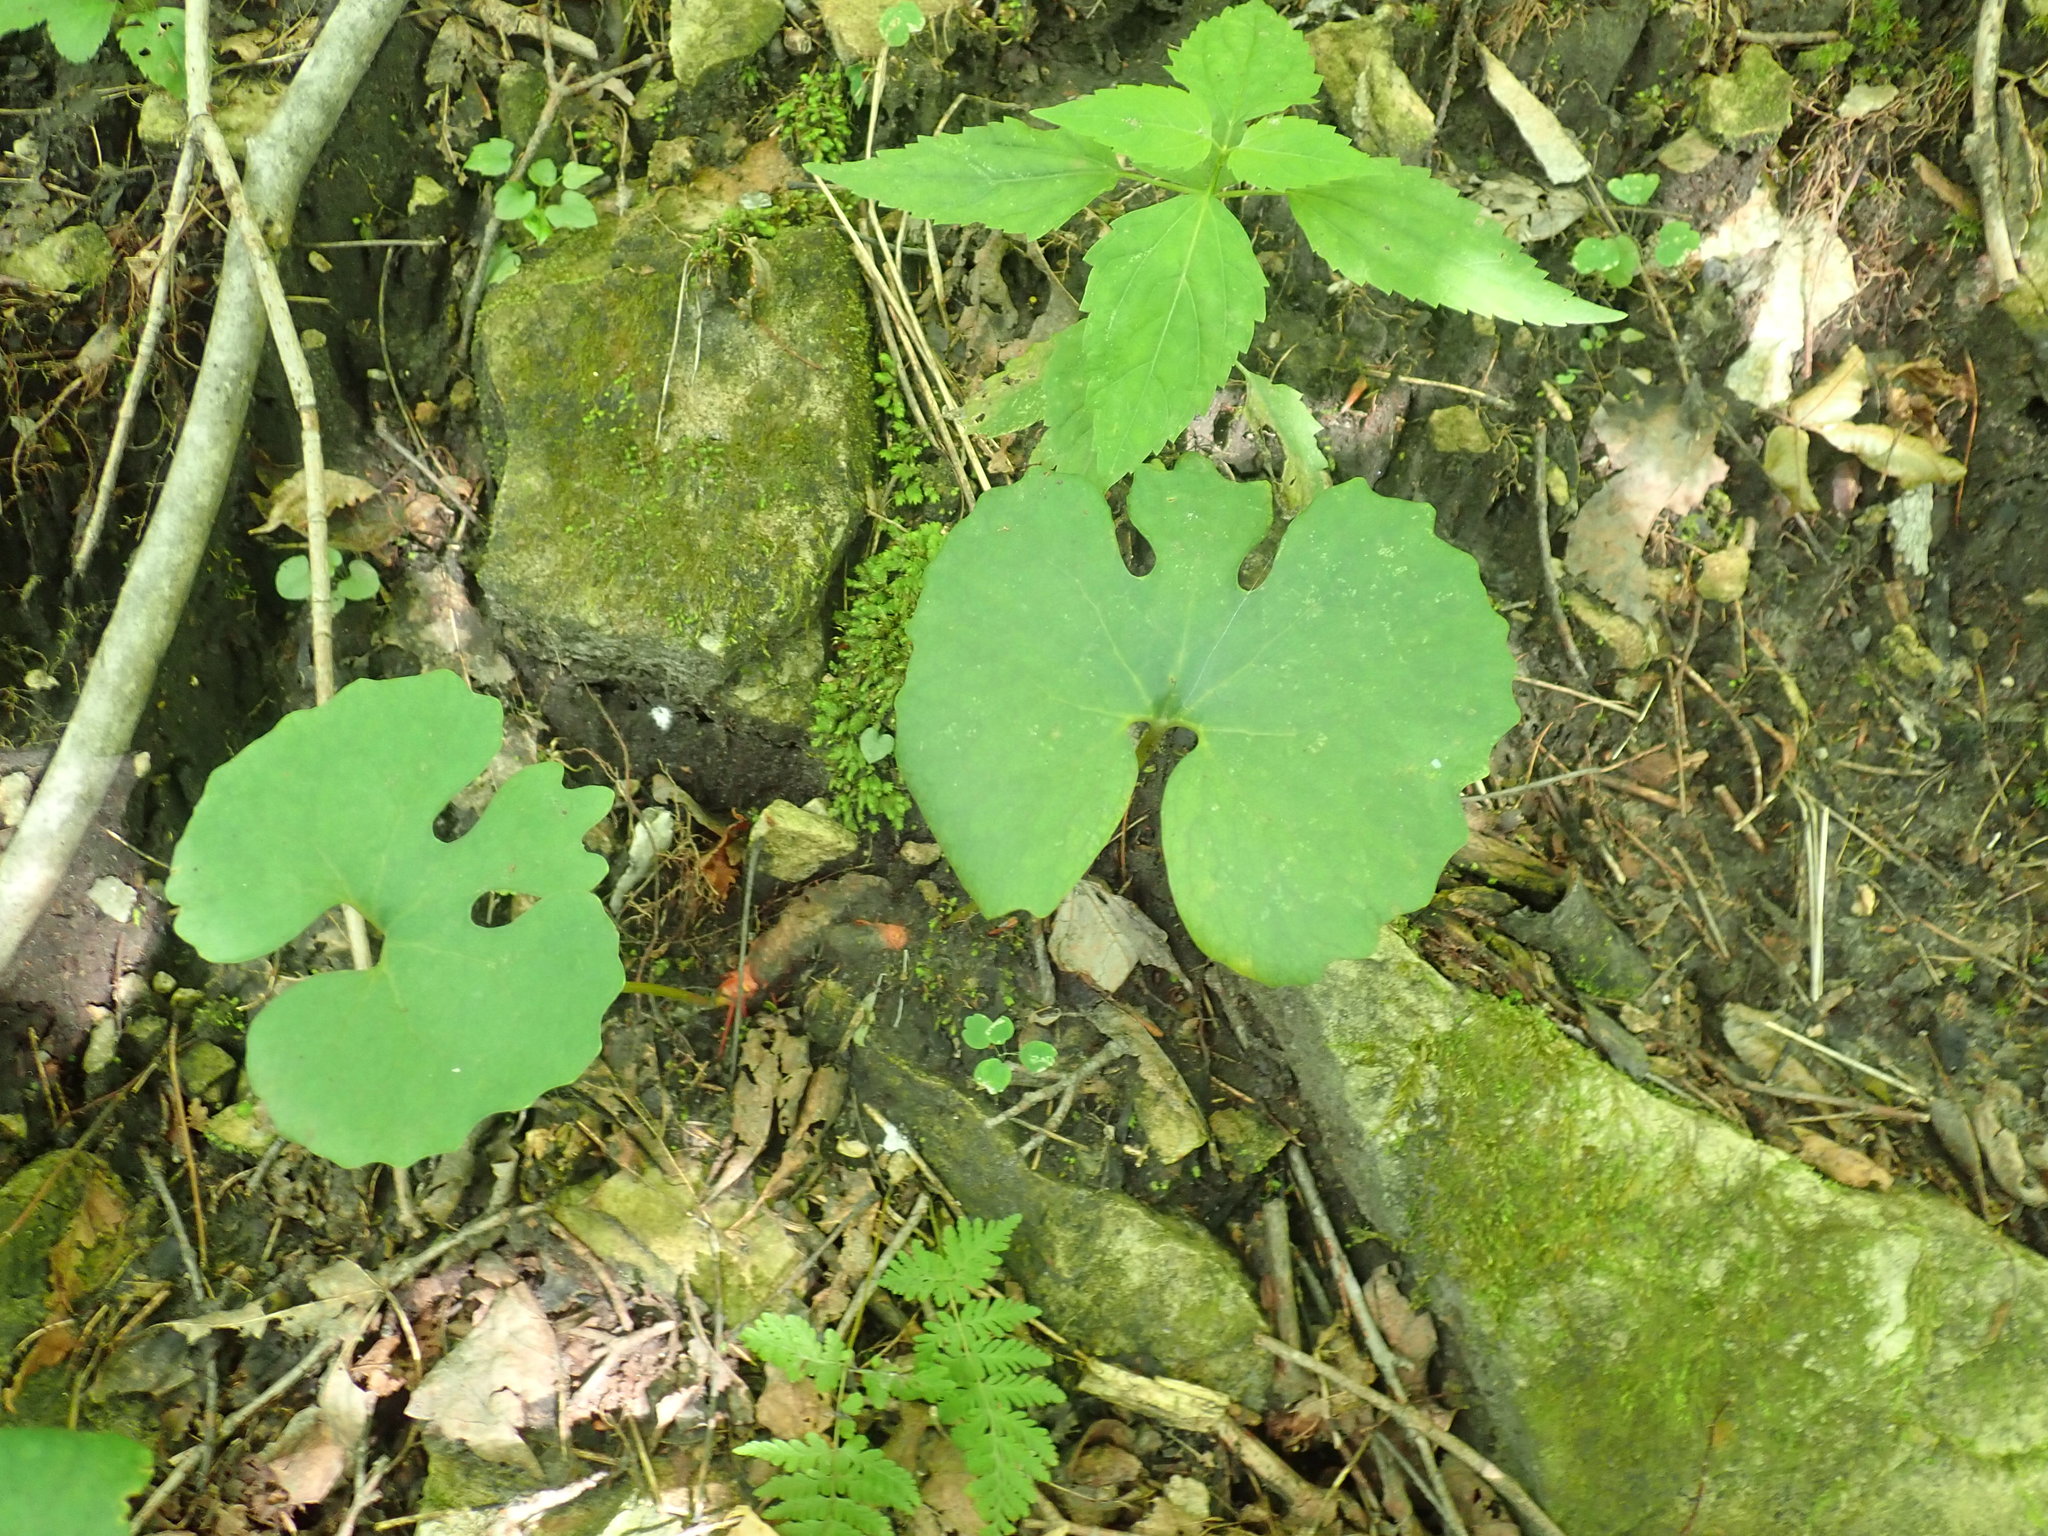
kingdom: Plantae
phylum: Tracheophyta
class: Magnoliopsida
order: Ranunculales
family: Papaveraceae
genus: Sanguinaria
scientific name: Sanguinaria canadensis
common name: Bloodroot
